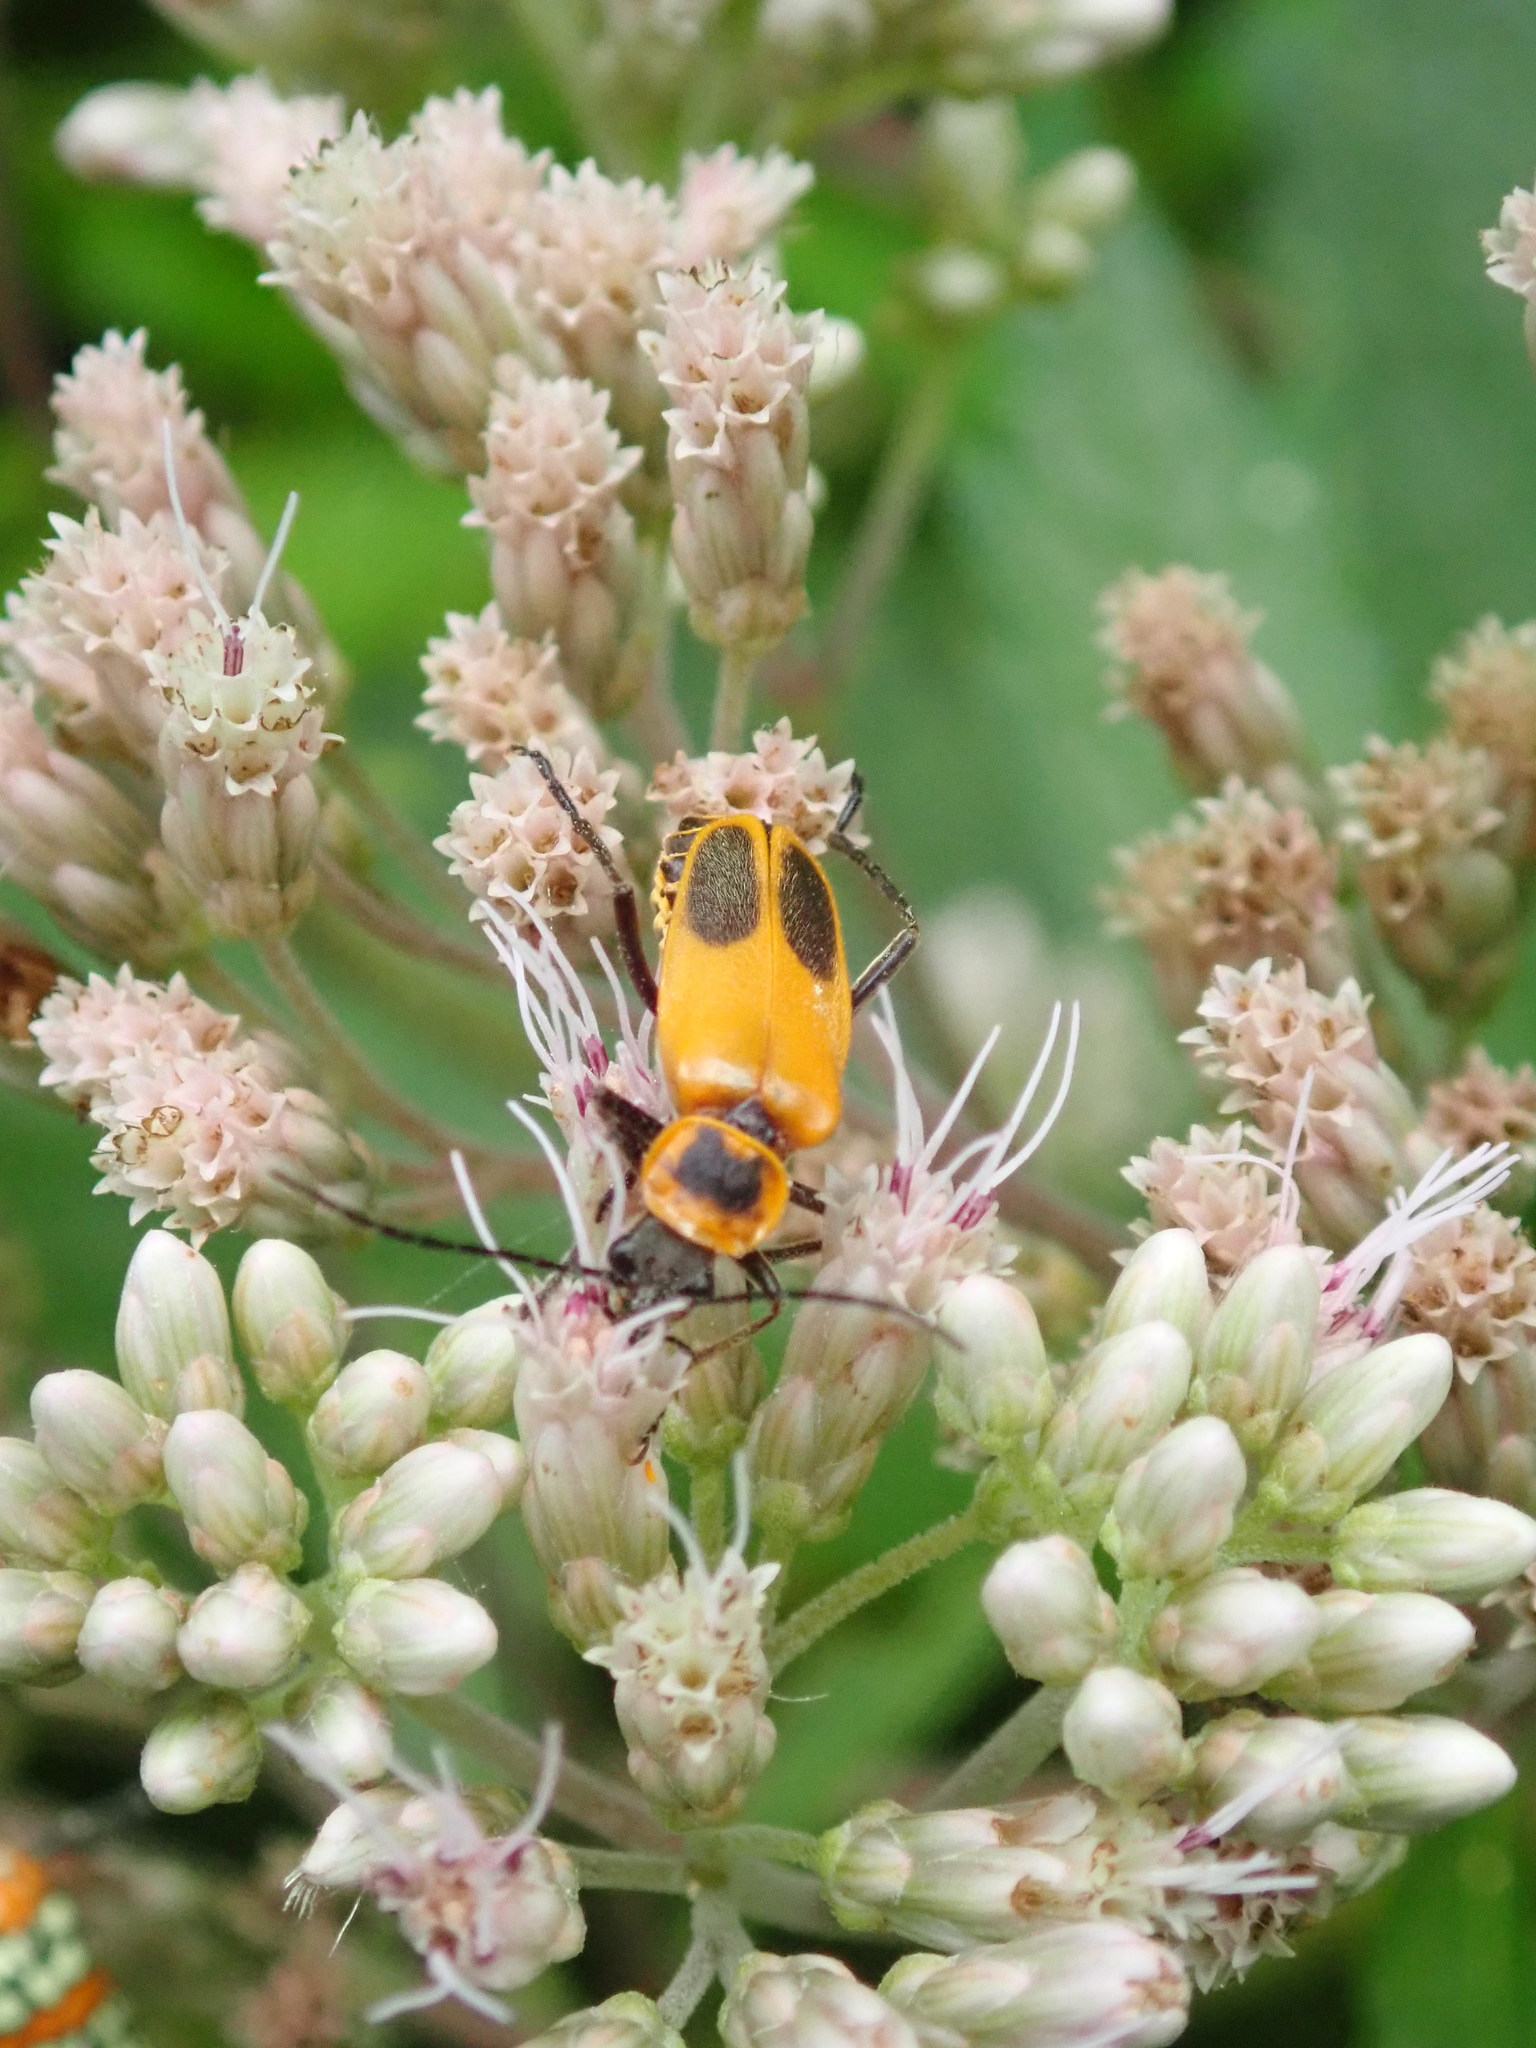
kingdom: Animalia
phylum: Arthropoda
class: Insecta
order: Coleoptera
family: Cantharidae
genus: Chauliognathus
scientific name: Chauliognathus pensylvanicus
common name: Goldenrod soldier beetle
